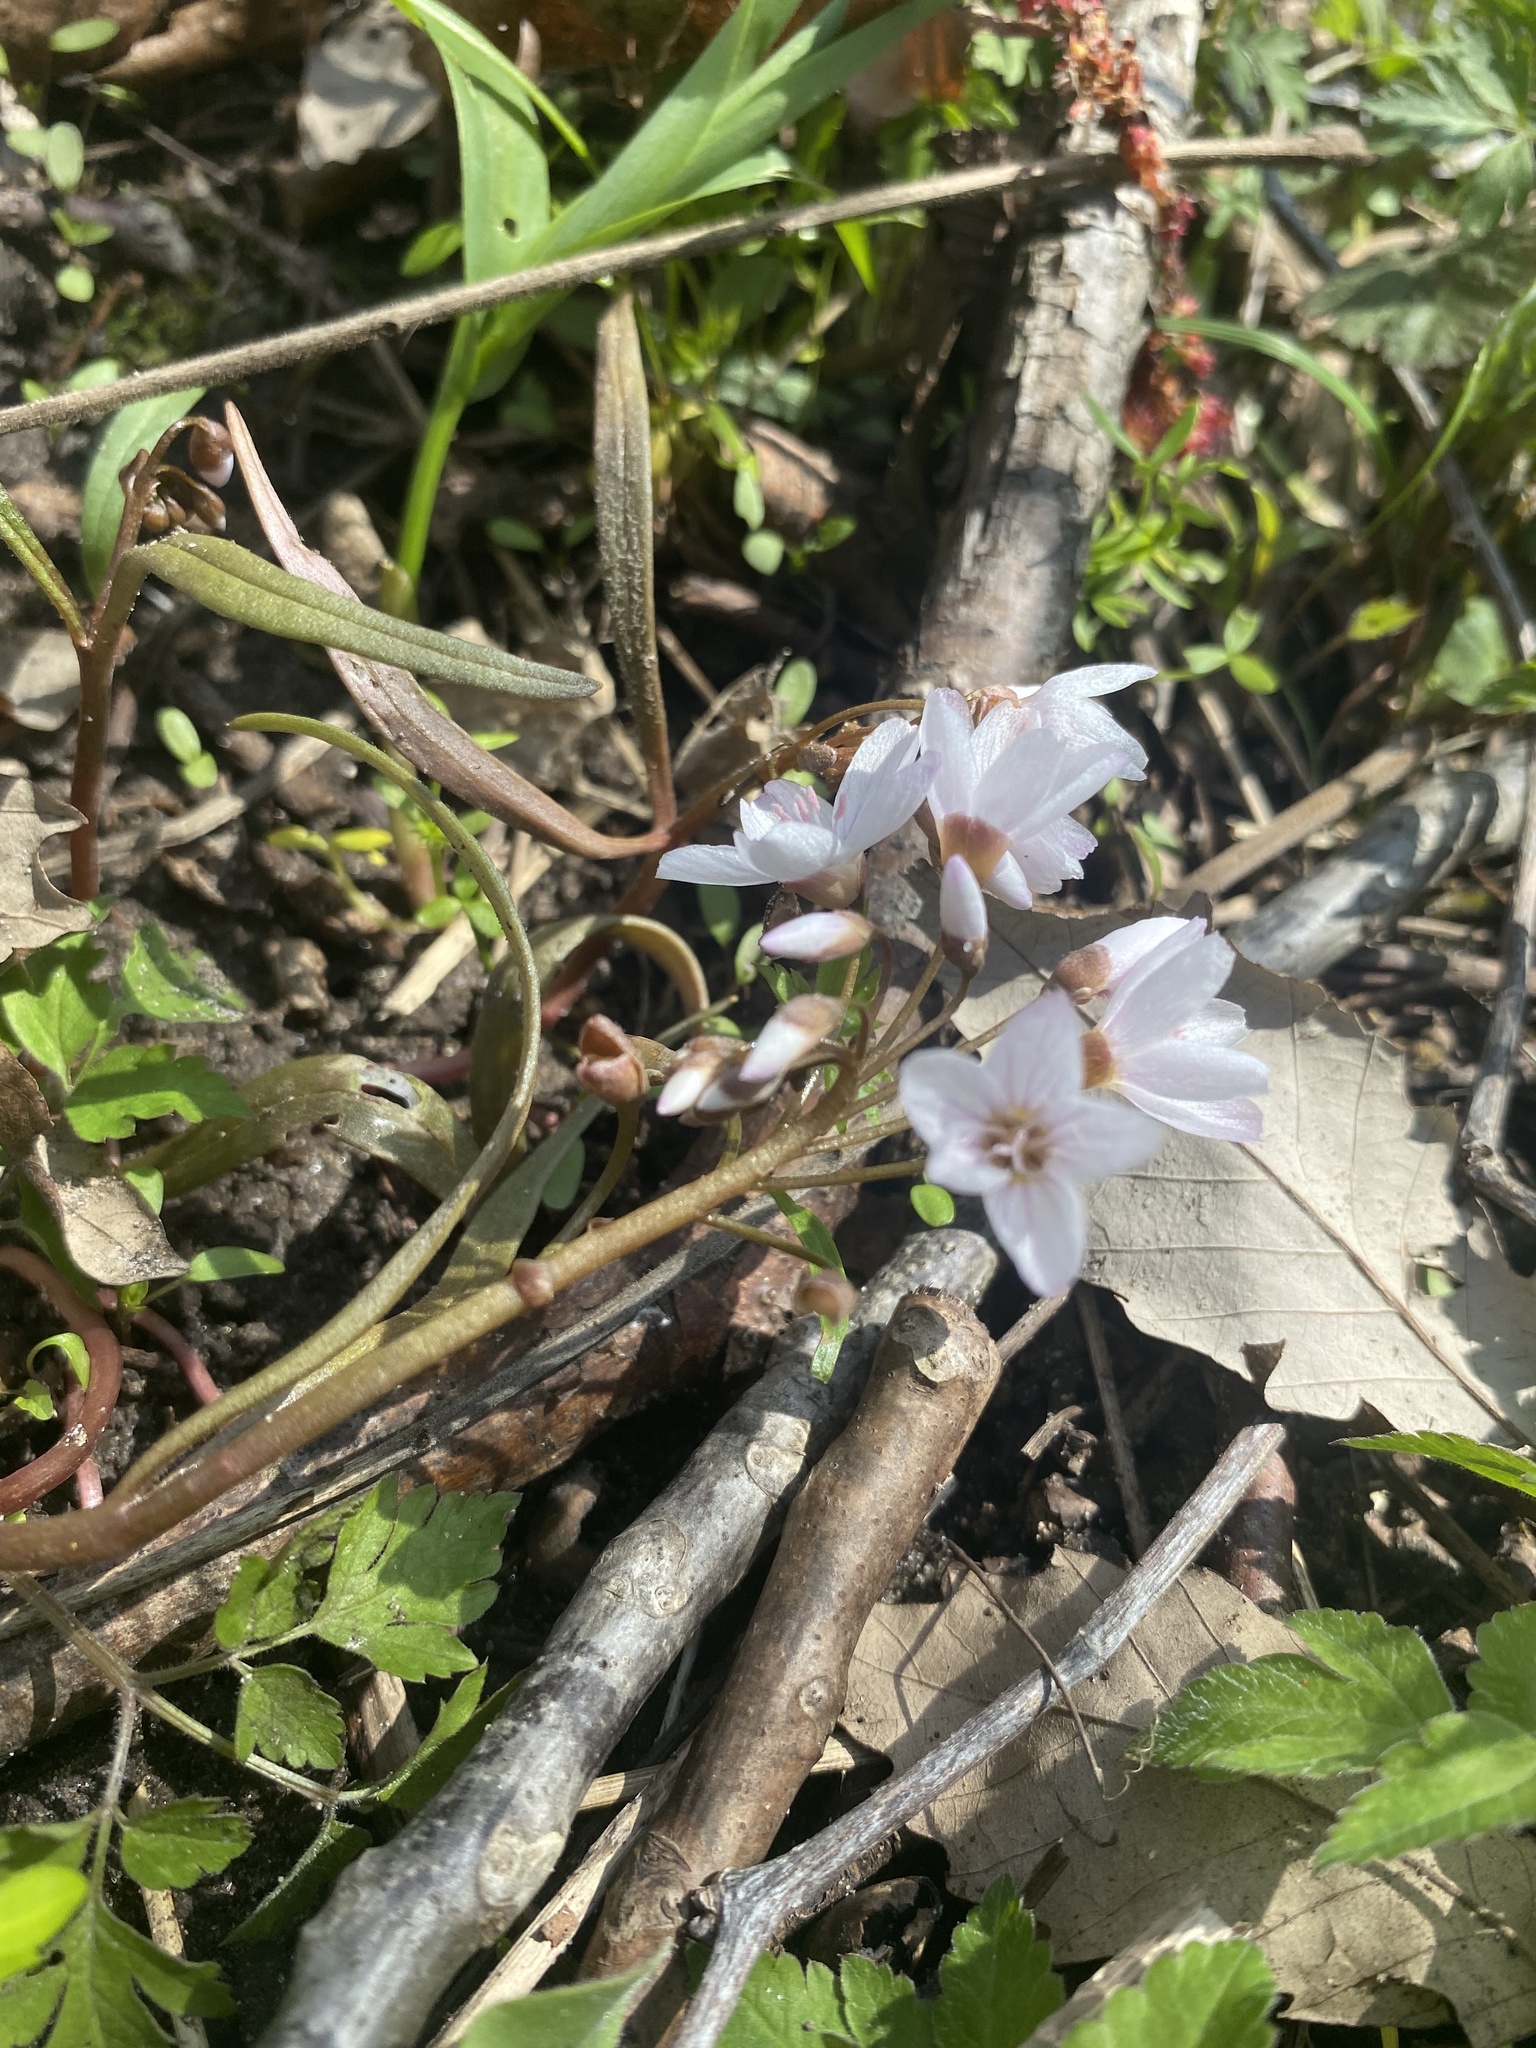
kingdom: Plantae
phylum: Tracheophyta
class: Magnoliopsida
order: Caryophyllales
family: Montiaceae
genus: Claytonia
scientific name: Claytonia virginica
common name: Virginia springbeauty
